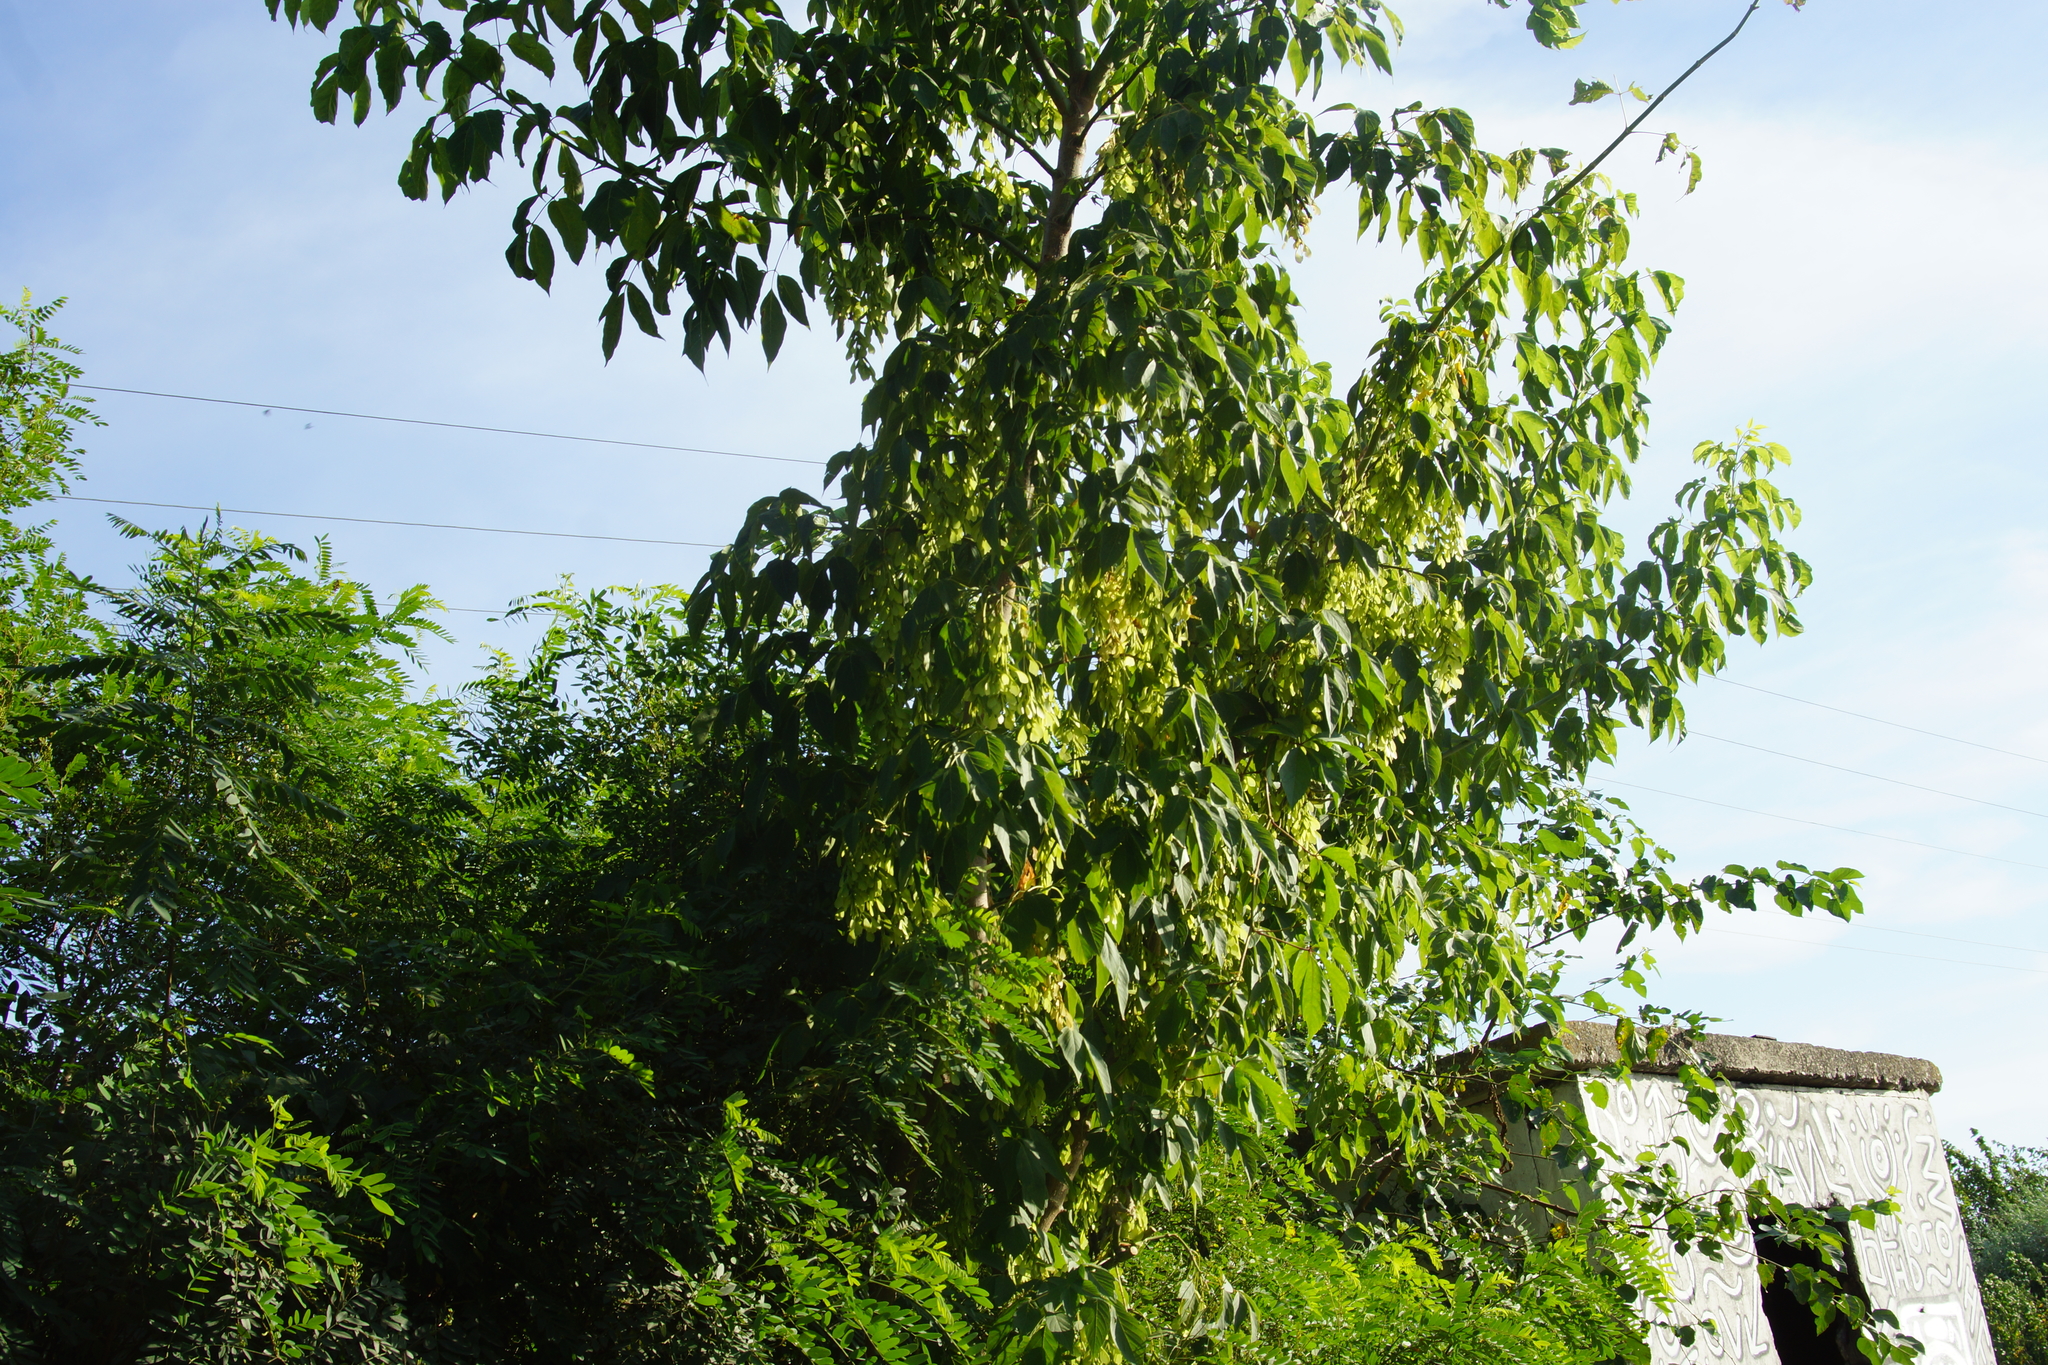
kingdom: Plantae
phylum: Tracheophyta
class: Magnoliopsida
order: Sapindales
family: Sapindaceae
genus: Acer
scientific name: Acer negundo
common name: Ashleaf maple
